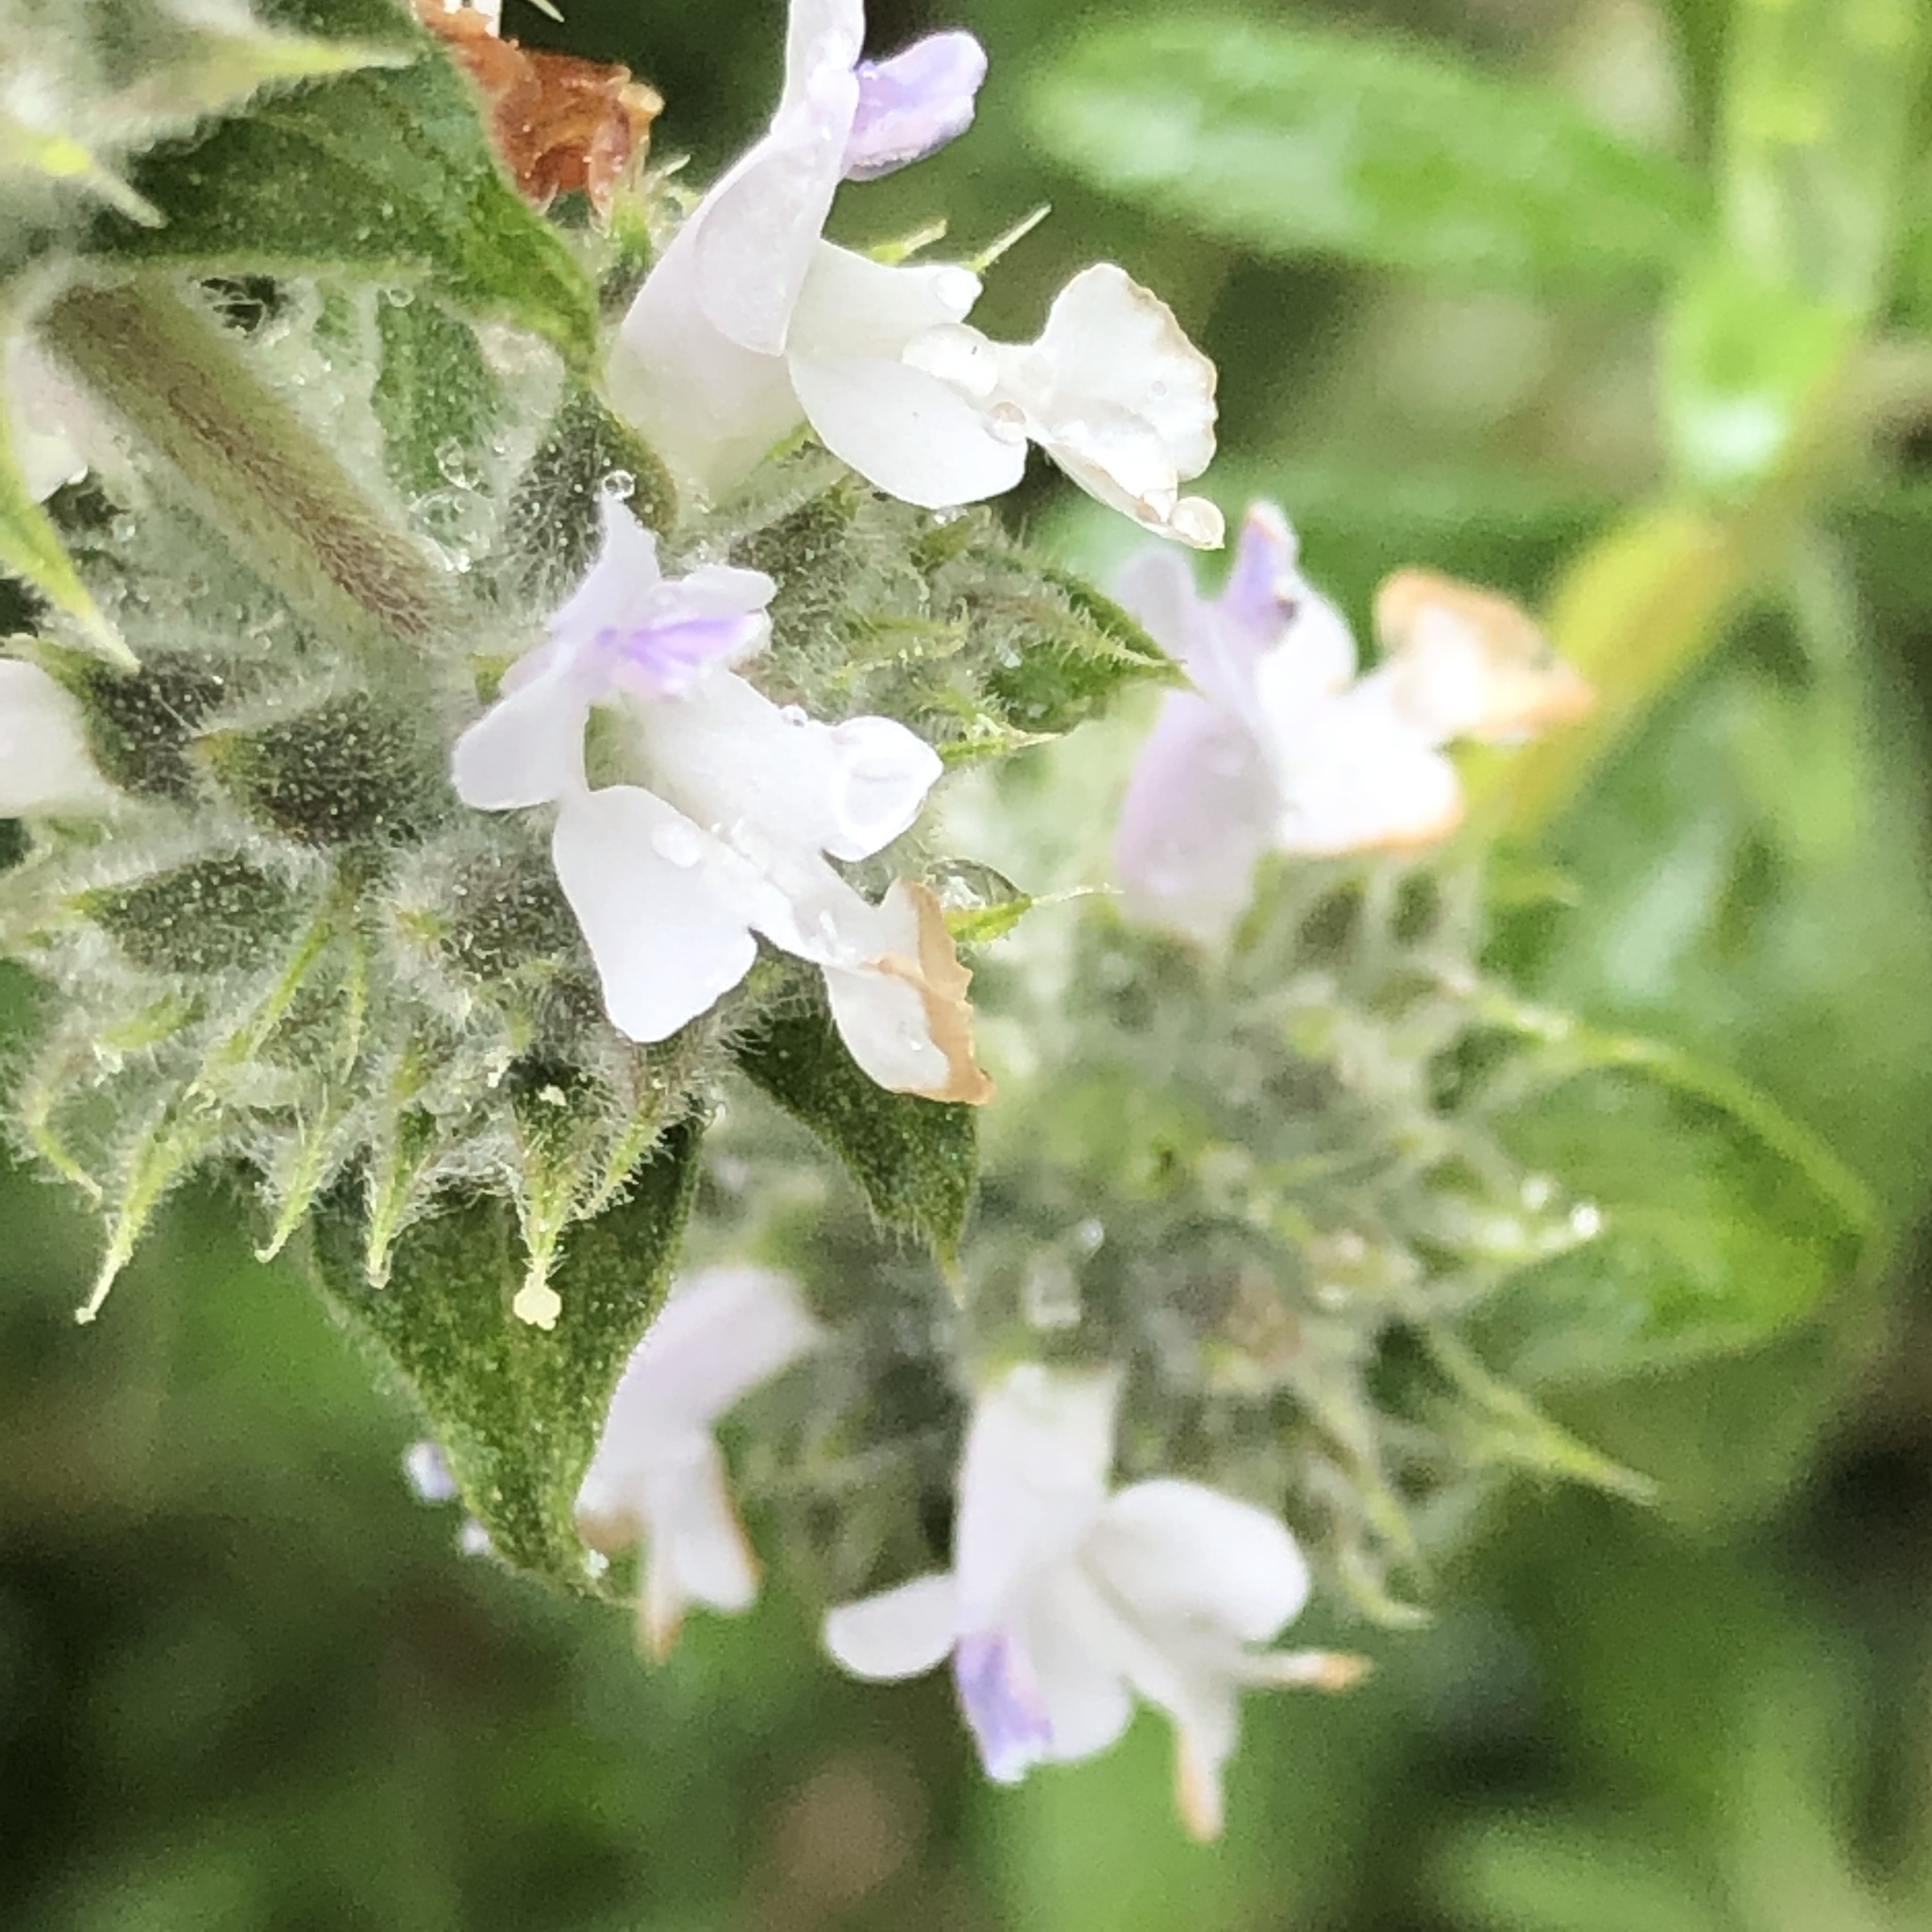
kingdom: Plantae
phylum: Tracheophyta
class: Magnoliopsida
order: Lamiales
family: Lamiaceae
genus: Salvia
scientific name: Salvia mellifera
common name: Black sage
